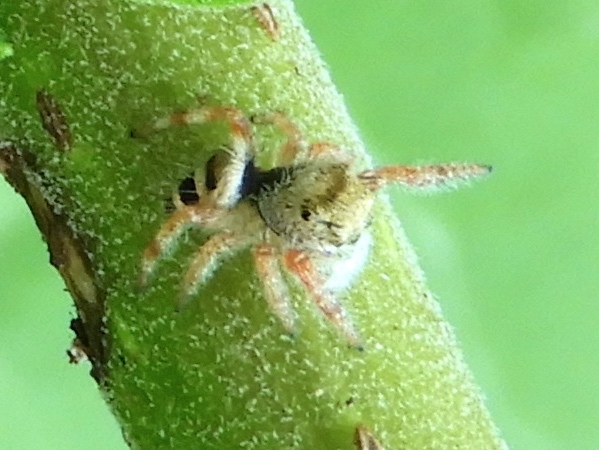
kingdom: Animalia
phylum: Arthropoda
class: Arachnida
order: Araneae
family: Salticidae
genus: Phidippus
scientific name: Phidippus pacosauritus
